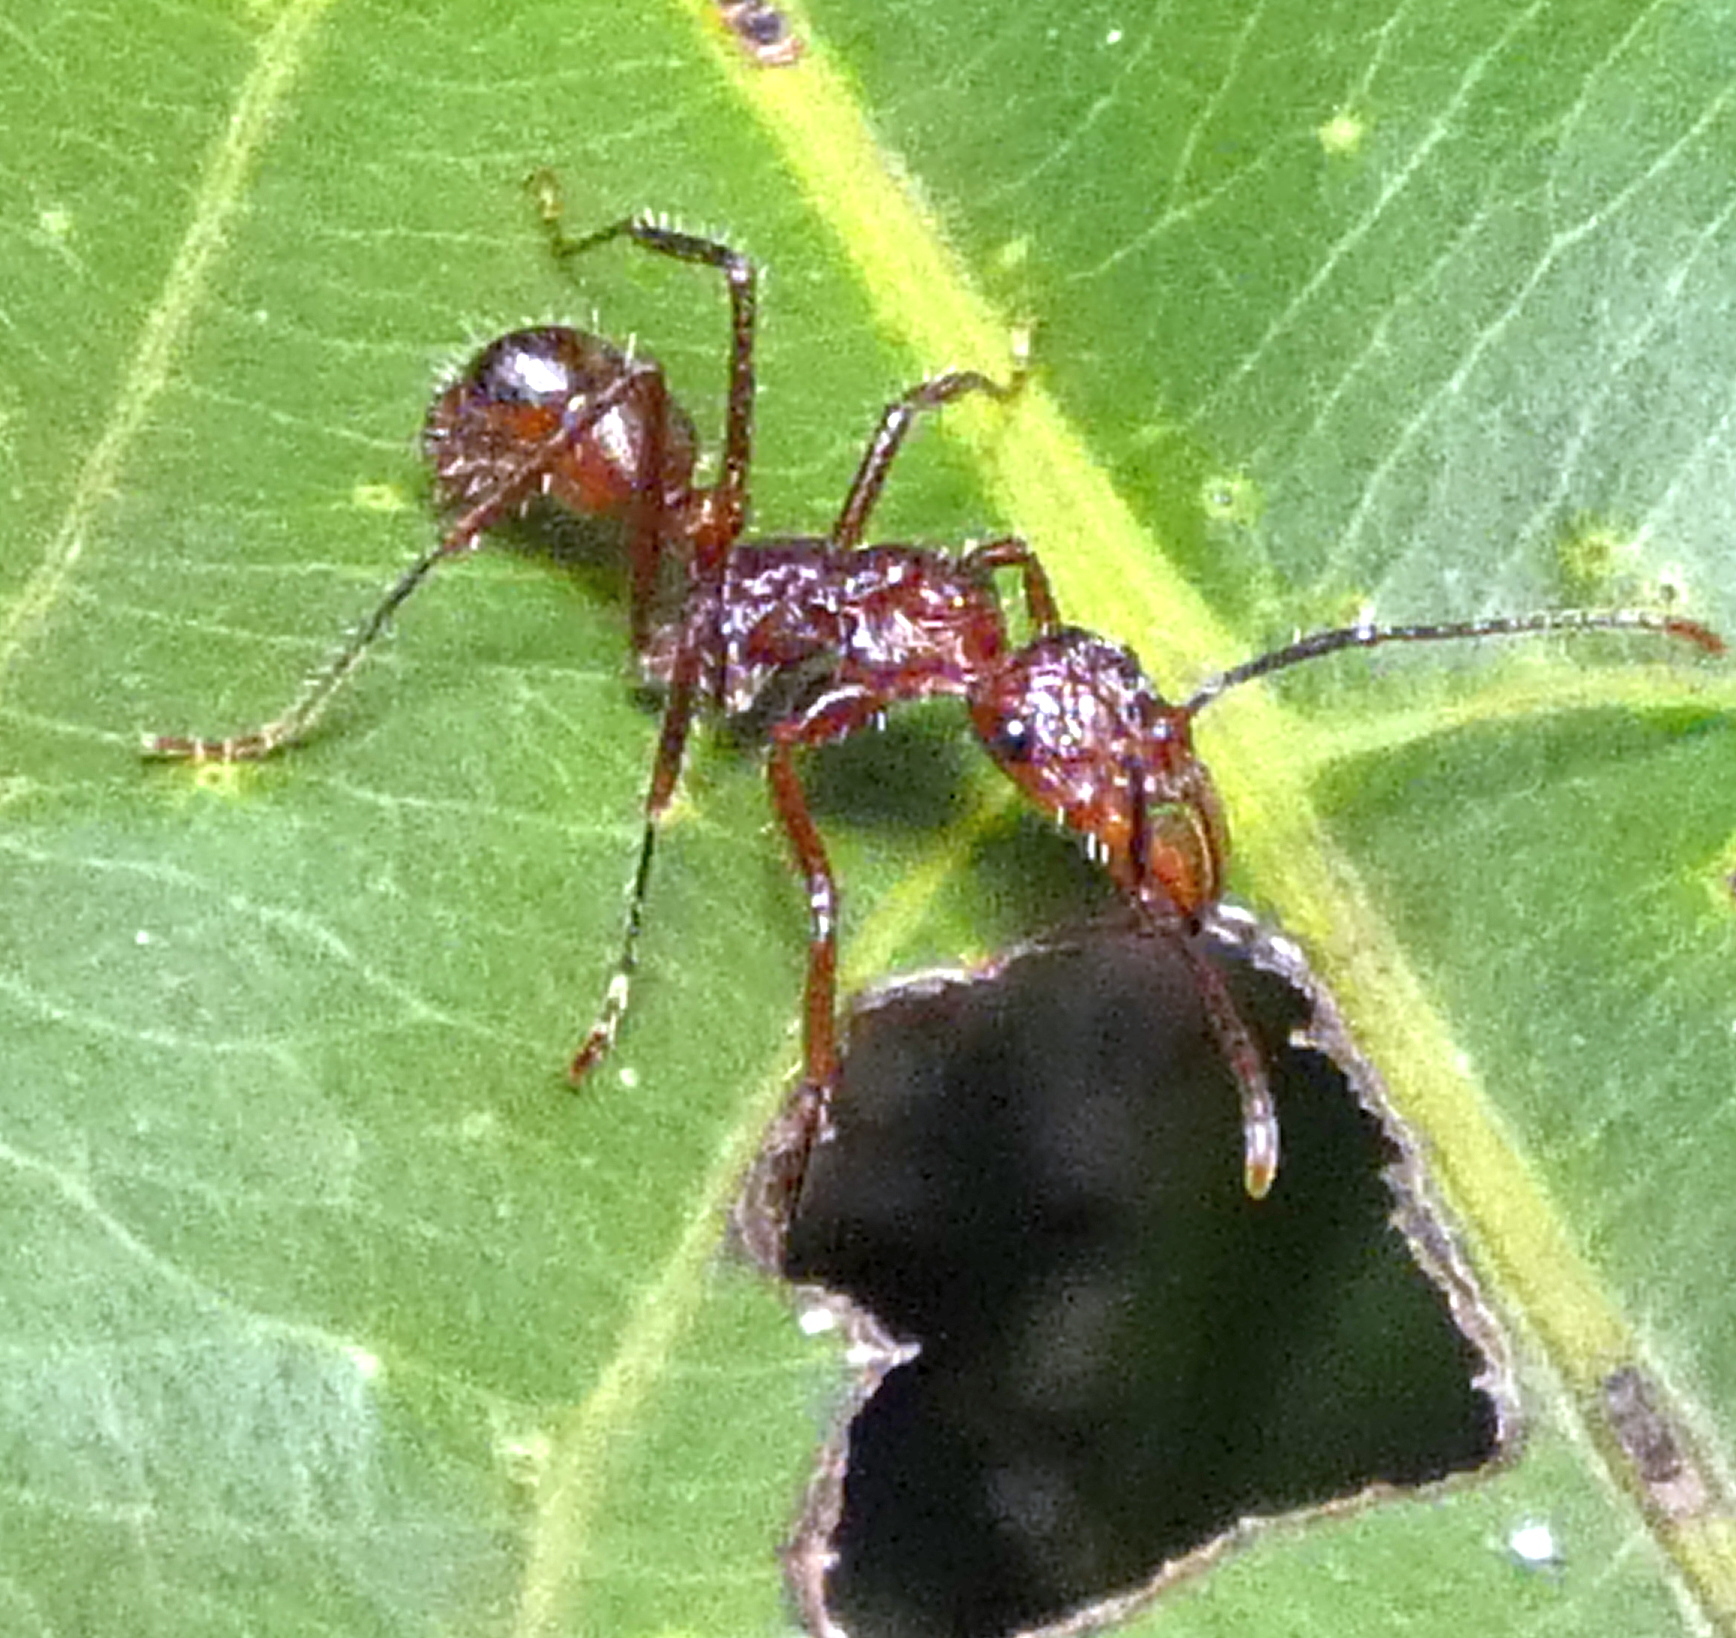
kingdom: Animalia
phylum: Arthropoda
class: Insecta
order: Hymenoptera
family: Formicidae
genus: Ectatomma
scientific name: Ectatomma tuberculatum
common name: Ant
